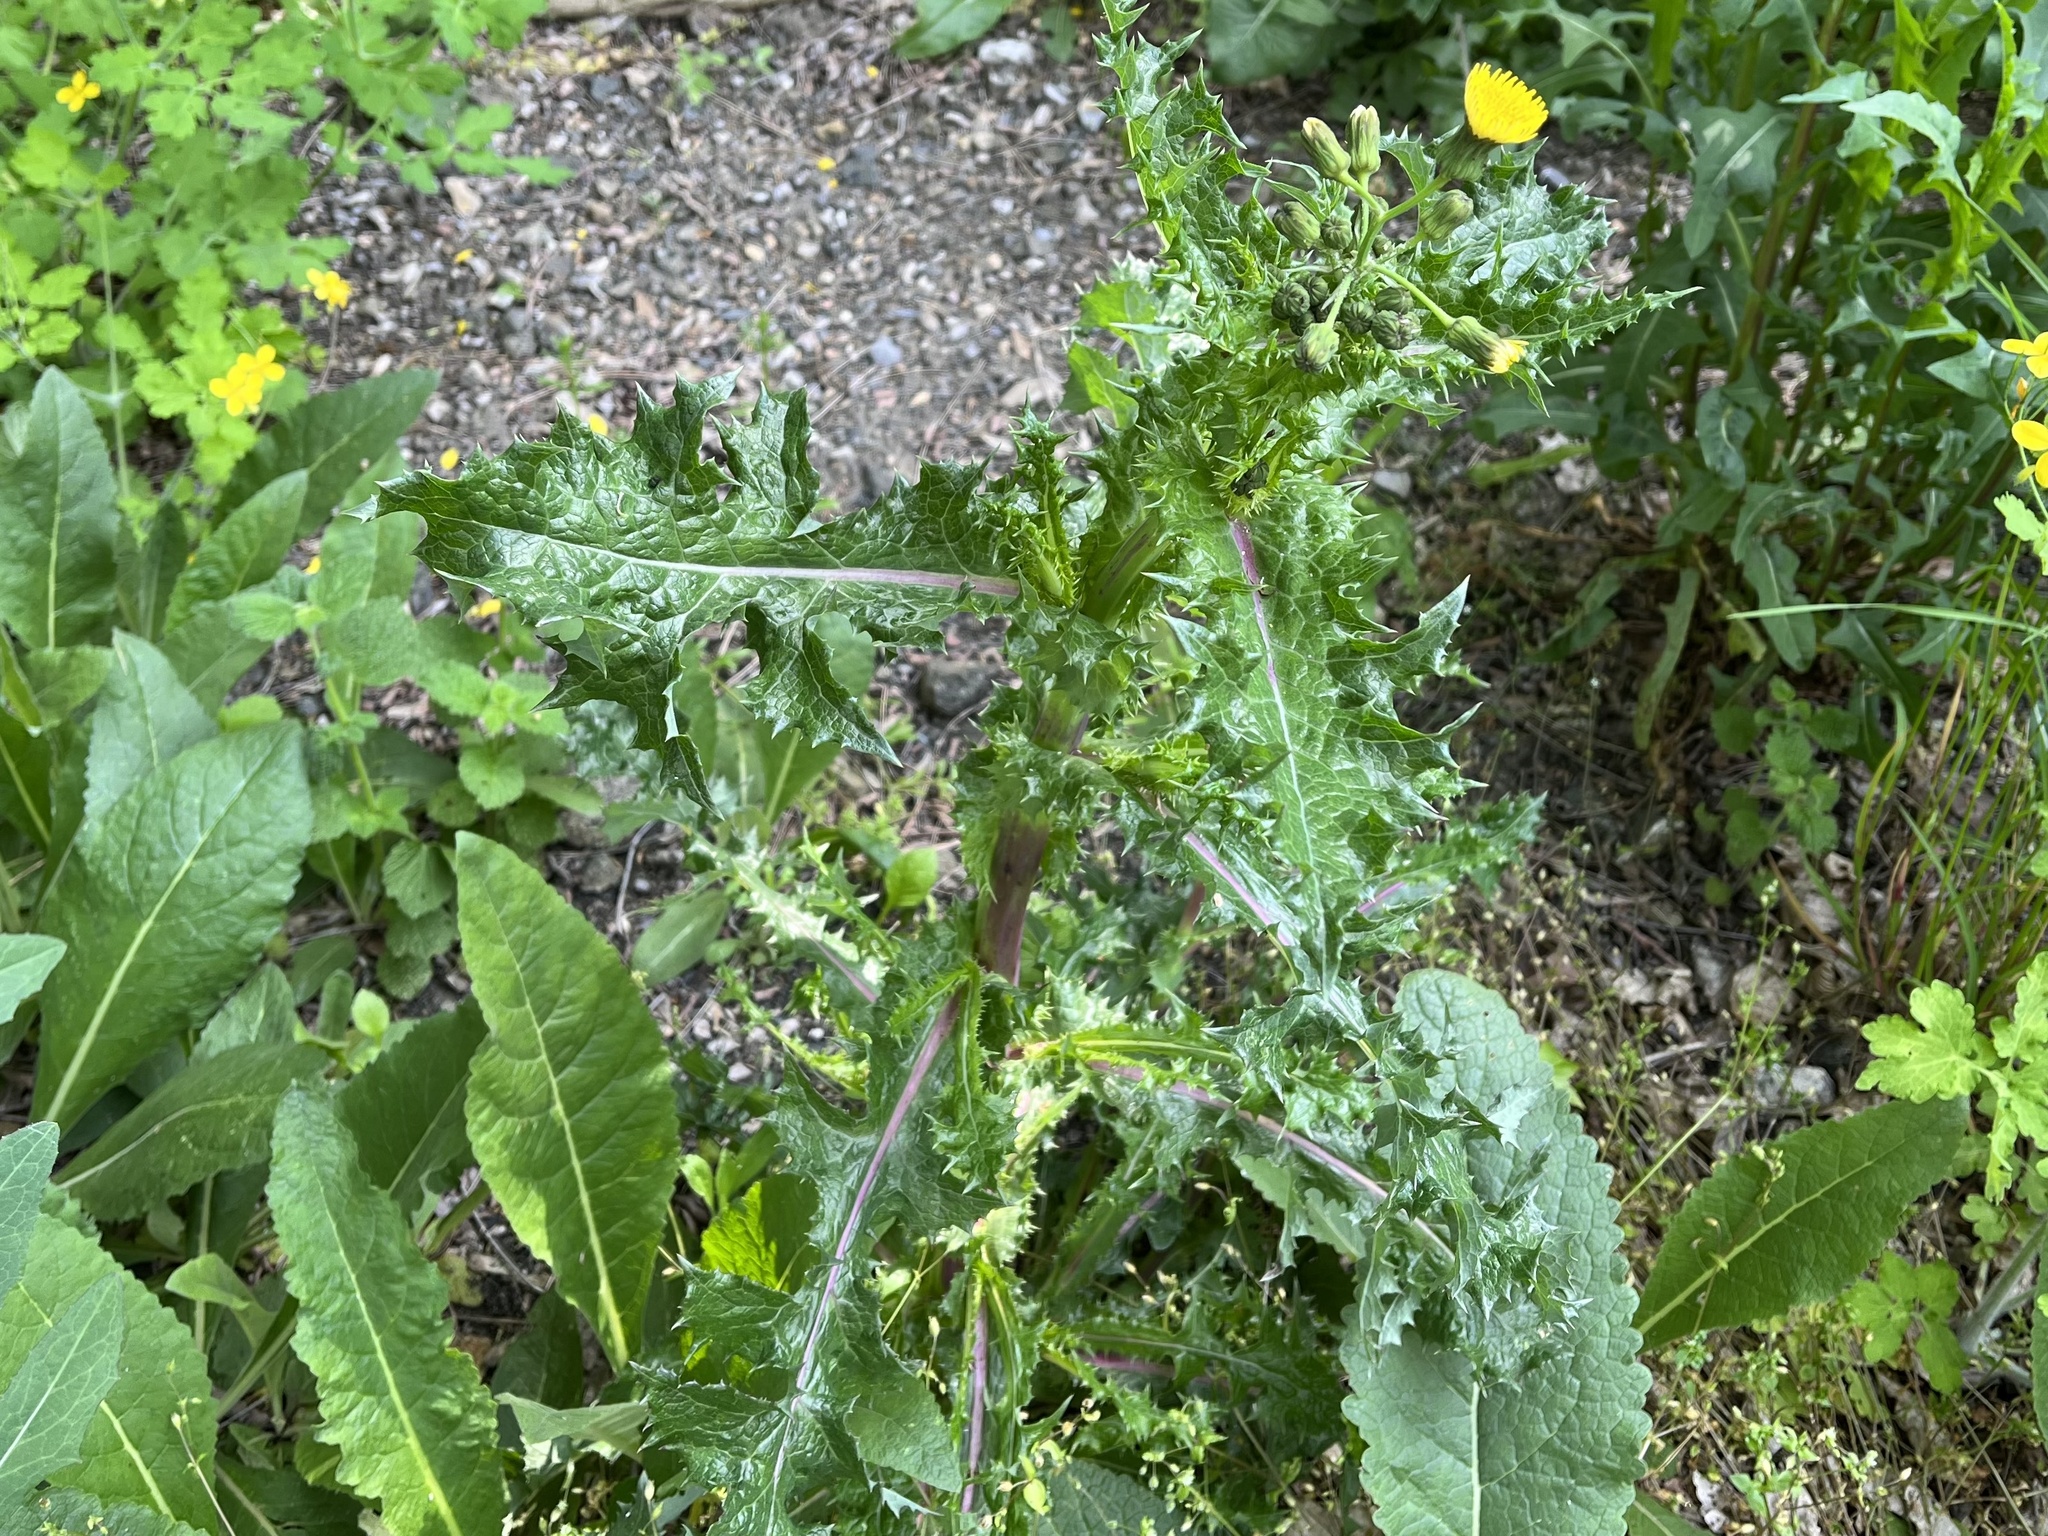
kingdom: Plantae
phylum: Tracheophyta
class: Magnoliopsida
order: Asterales
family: Asteraceae
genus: Sonchus
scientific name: Sonchus asper
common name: Prickly sow-thistle
